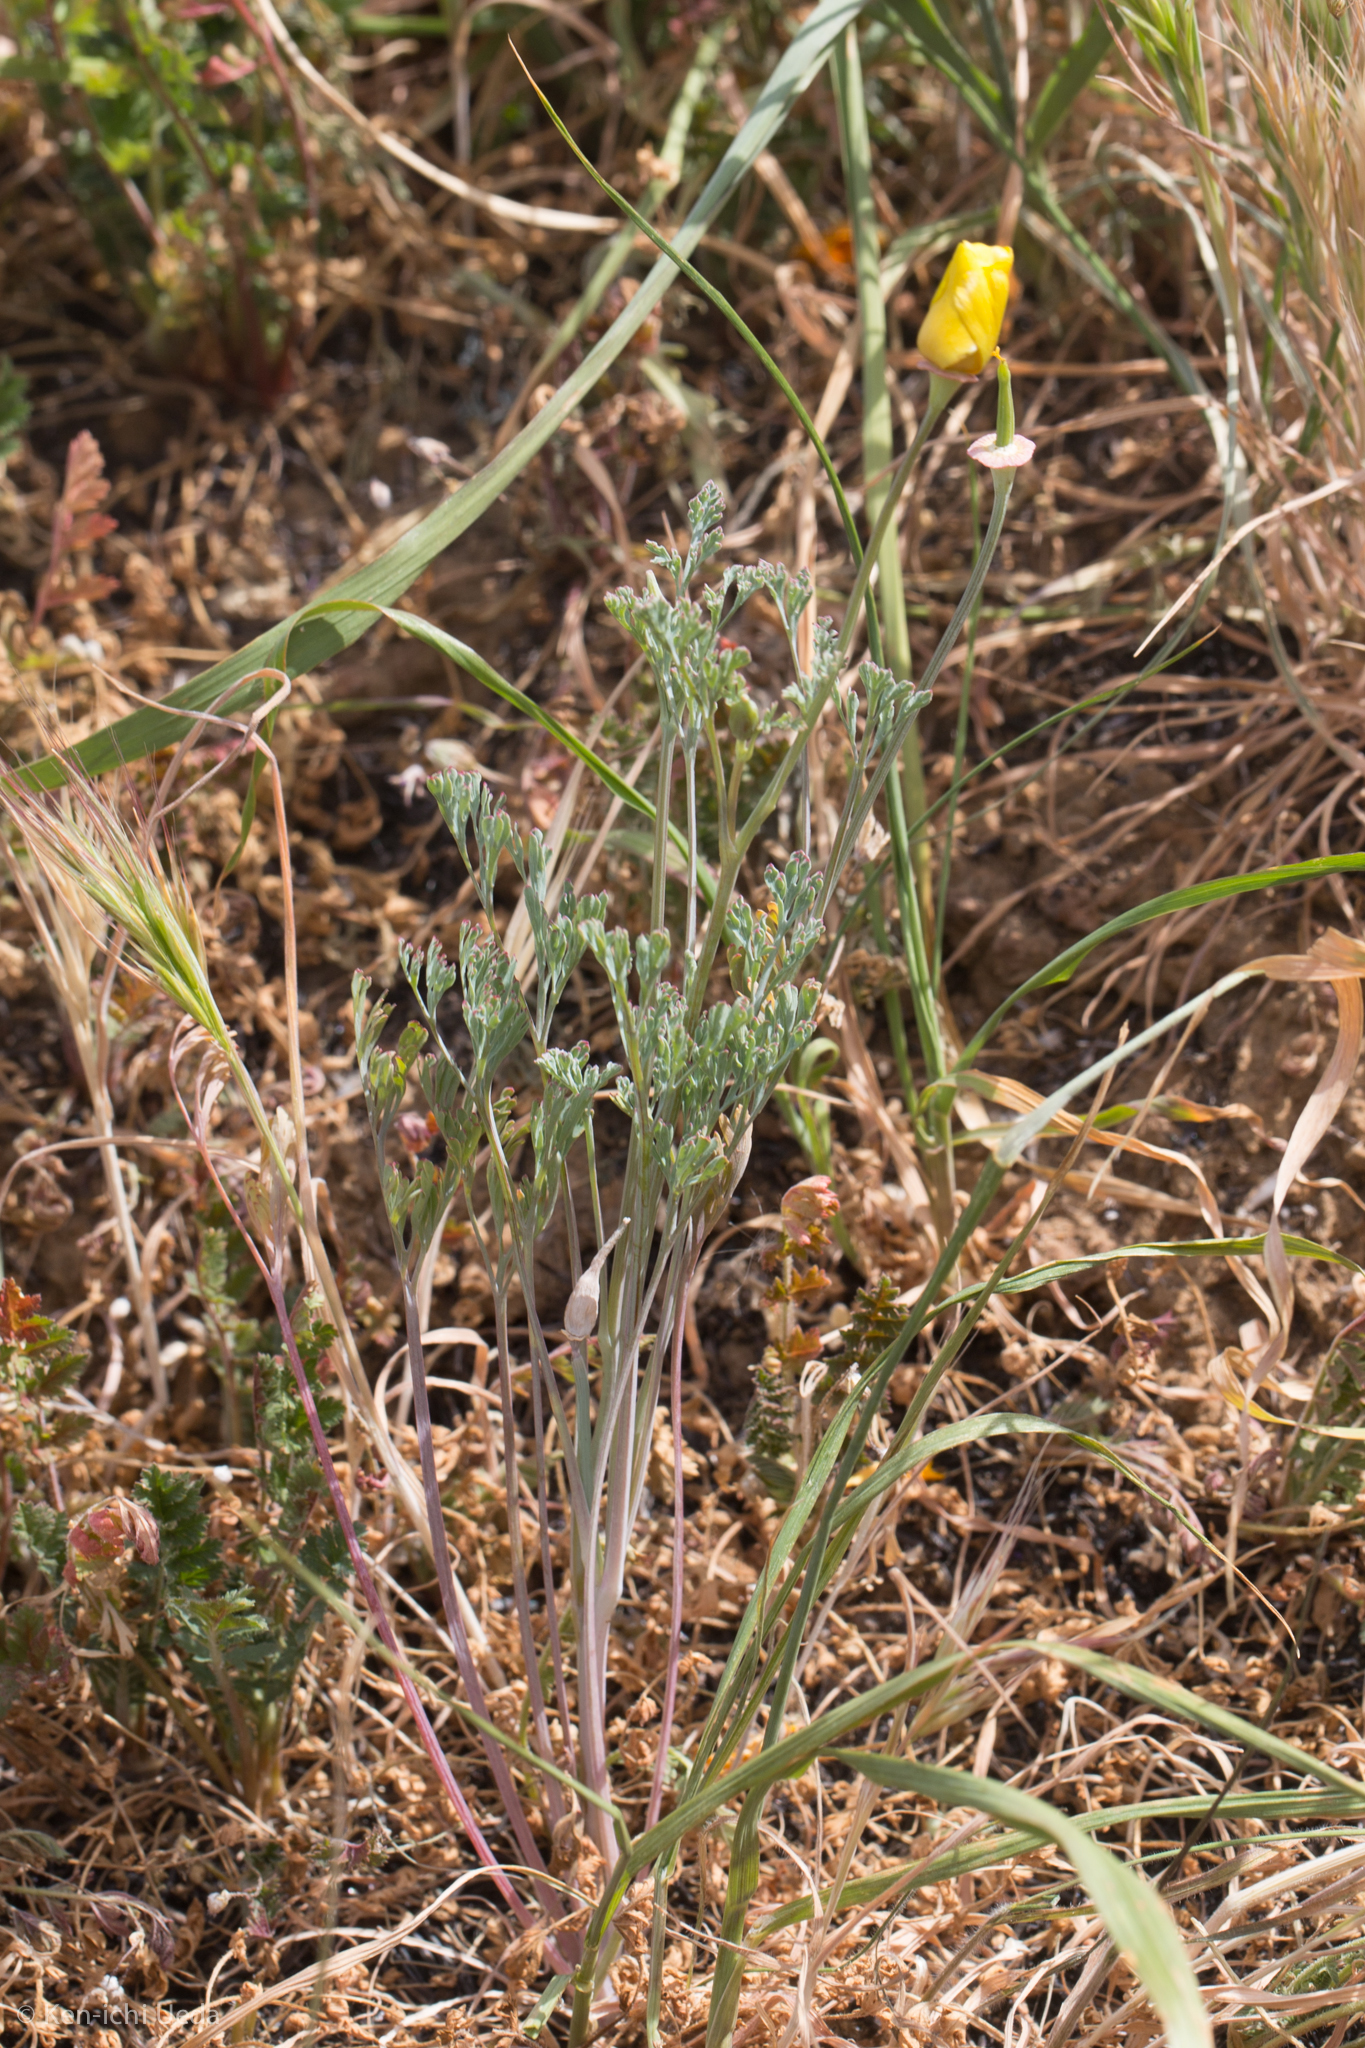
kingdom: Plantae
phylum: Tracheophyta
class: Magnoliopsida
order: Ranunculales
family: Papaveraceae
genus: Eschscholzia
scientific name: Eschscholzia californica
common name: California poppy
